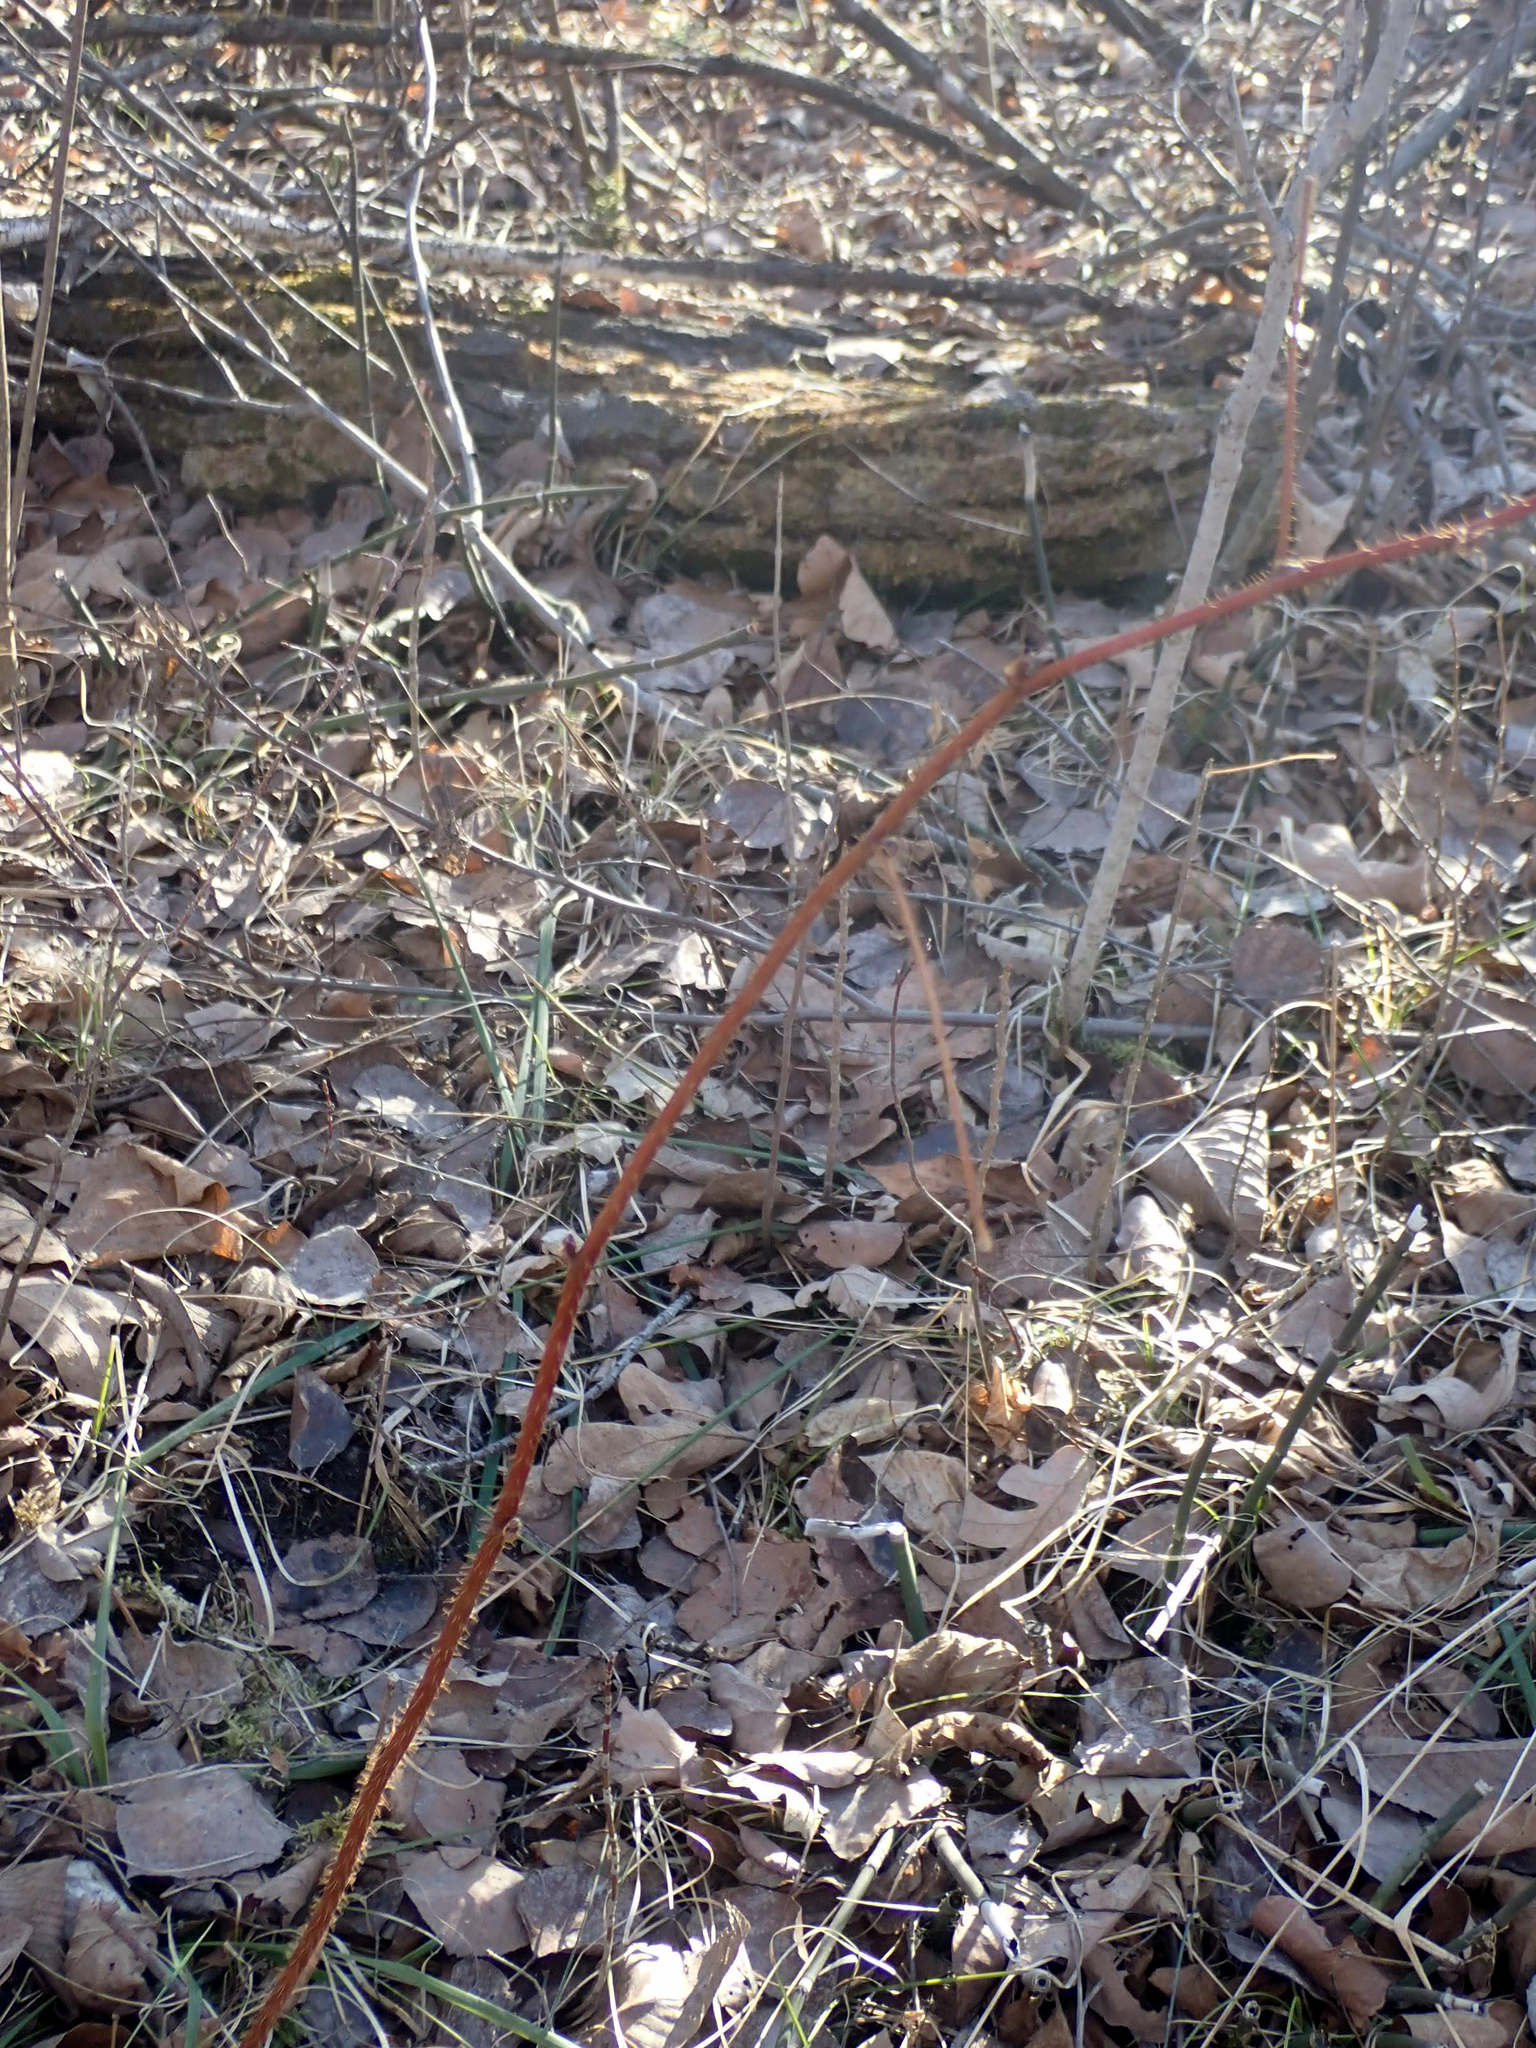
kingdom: Plantae
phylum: Tracheophyta
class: Magnoliopsida
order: Rosales
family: Rosaceae
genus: Rubus
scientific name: Rubus idaeus
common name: Raspberry
